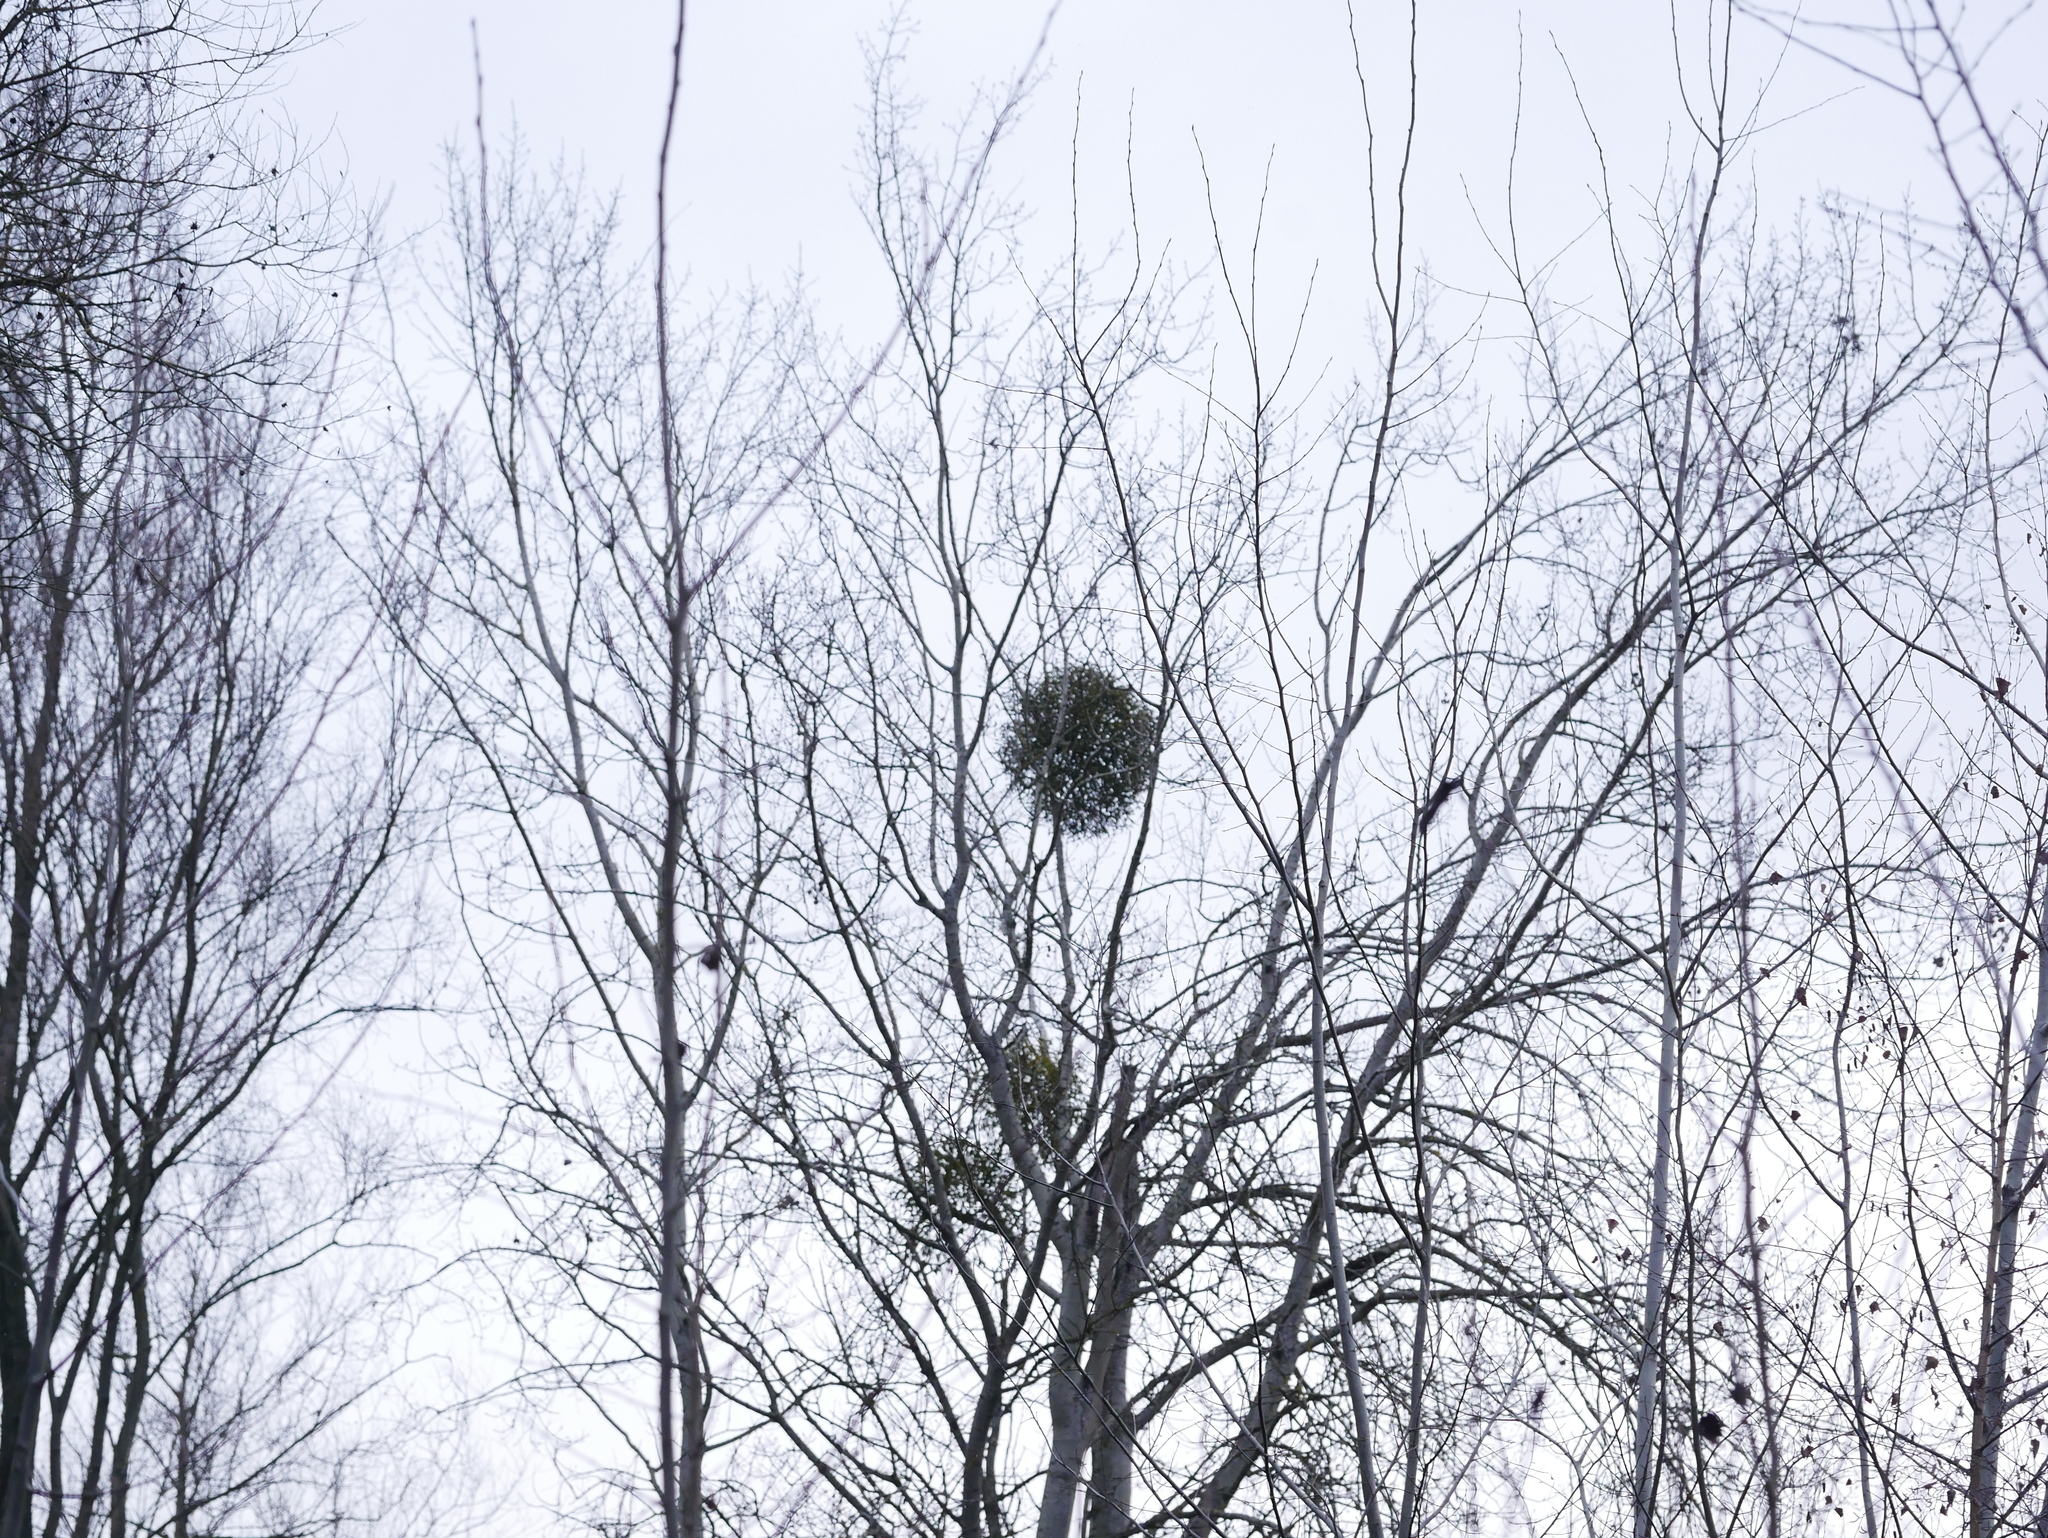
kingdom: Plantae
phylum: Tracheophyta
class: Magnoliopsida
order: Santalales
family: Viscaceae
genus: Viscum
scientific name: Viscum album
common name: Mistletoe
